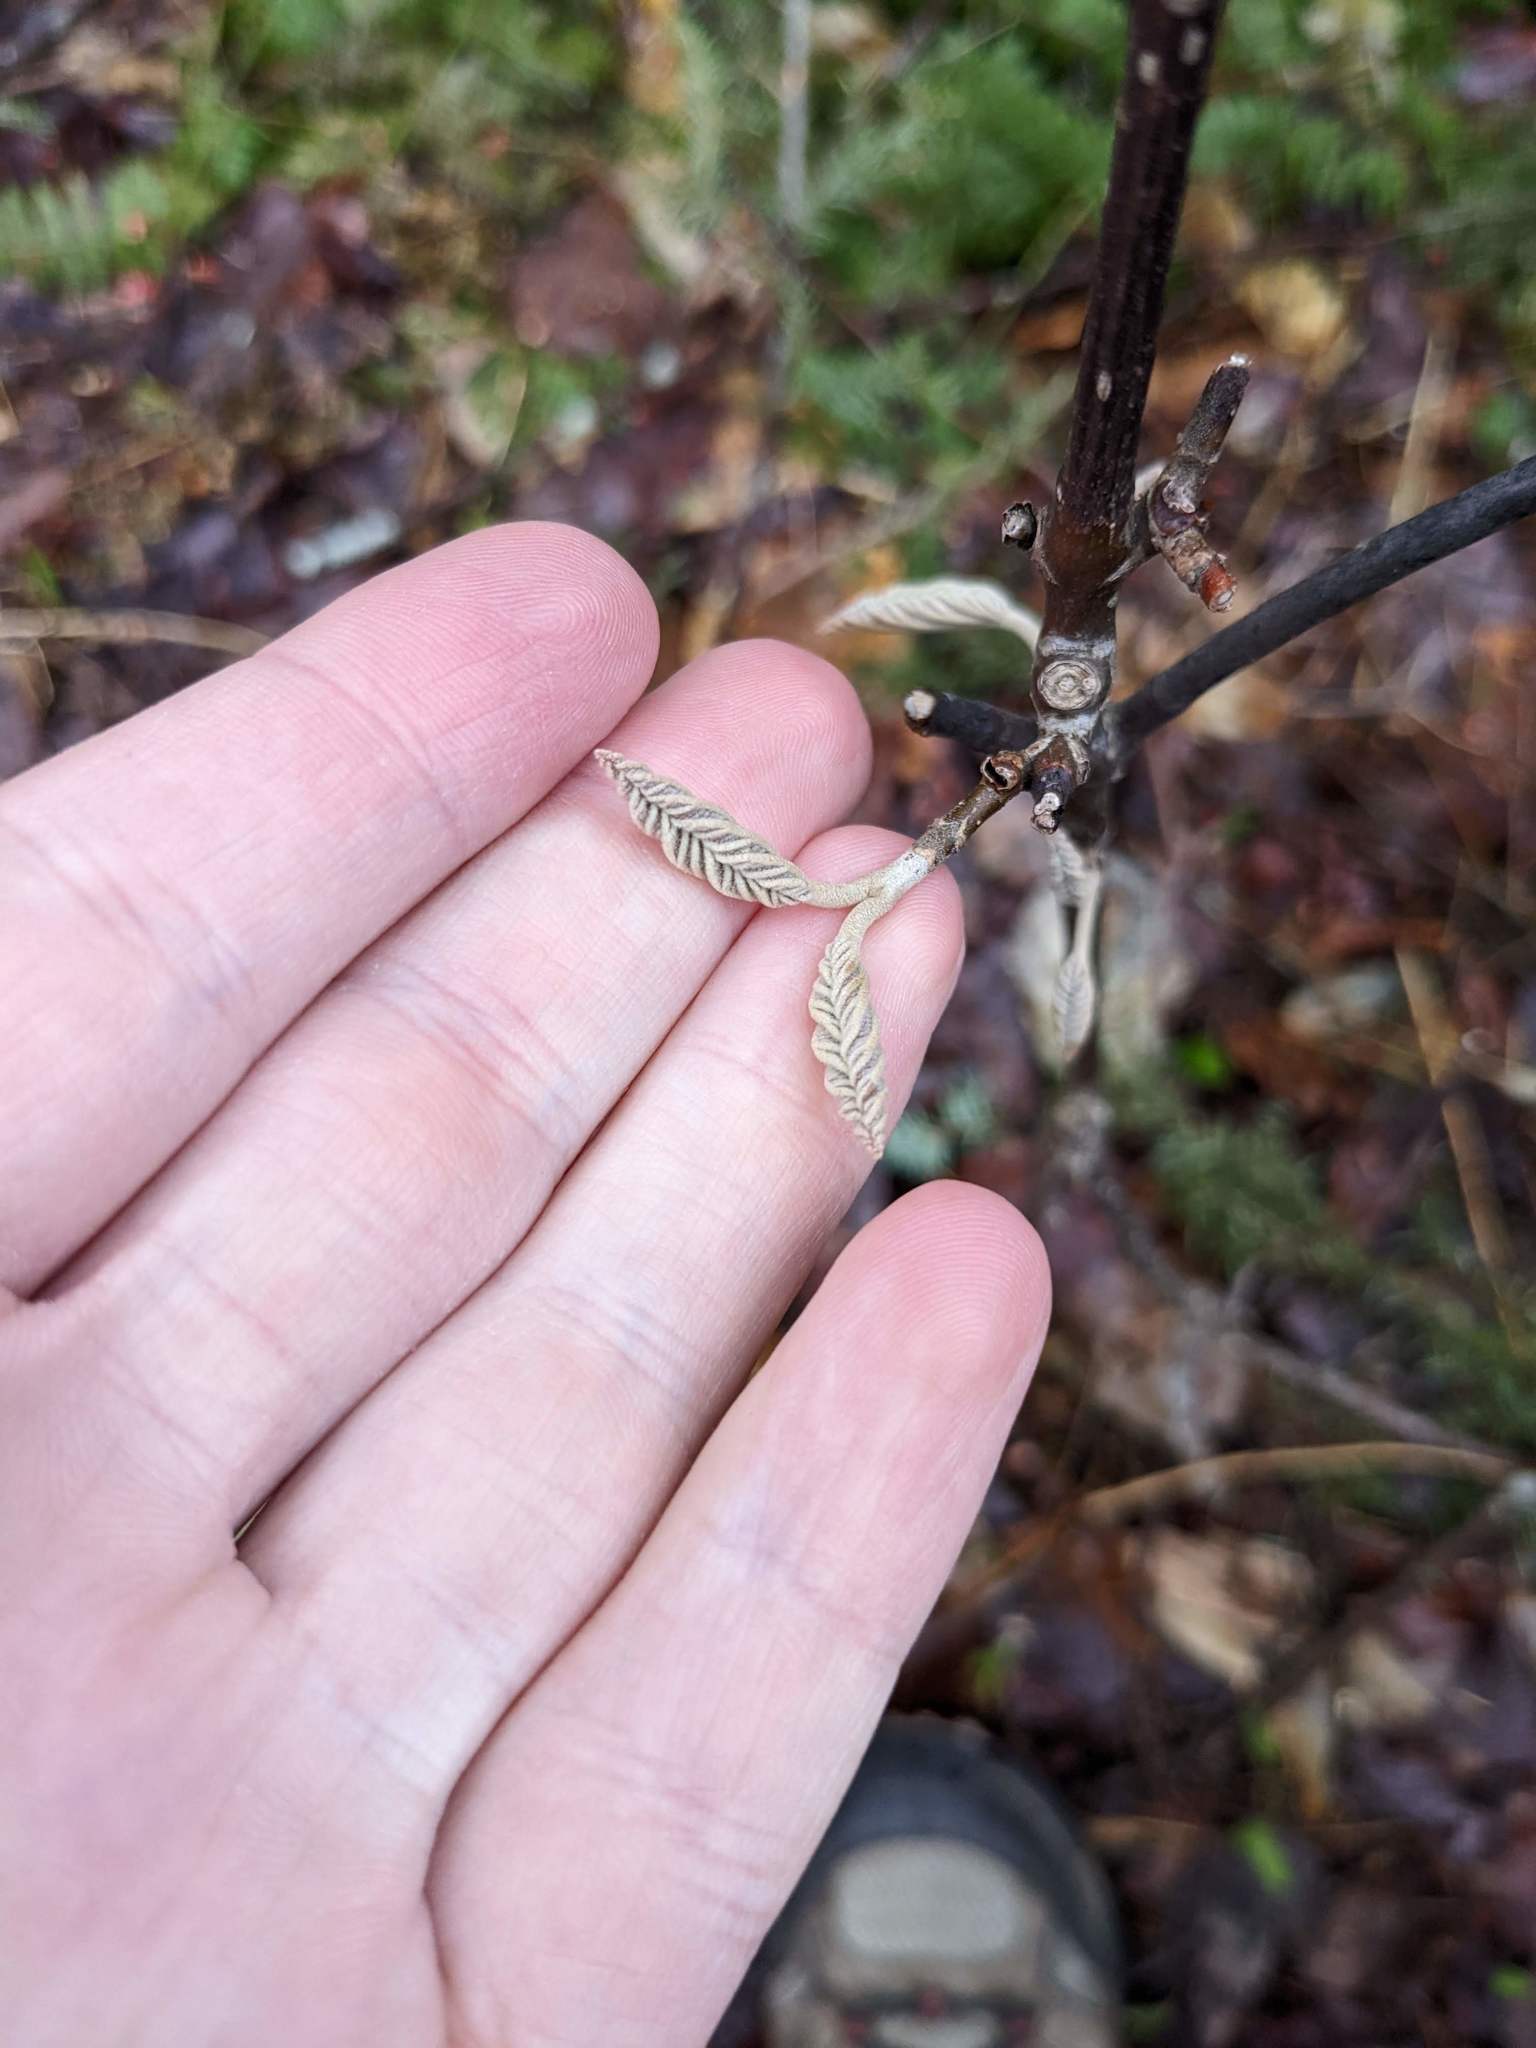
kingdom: Plantae
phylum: Tracheophyta
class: Magnoliopsida
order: Dipsacales
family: Viburnaceae
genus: Viburnum
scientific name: Viburnum lantanoides
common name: Hobblebush
